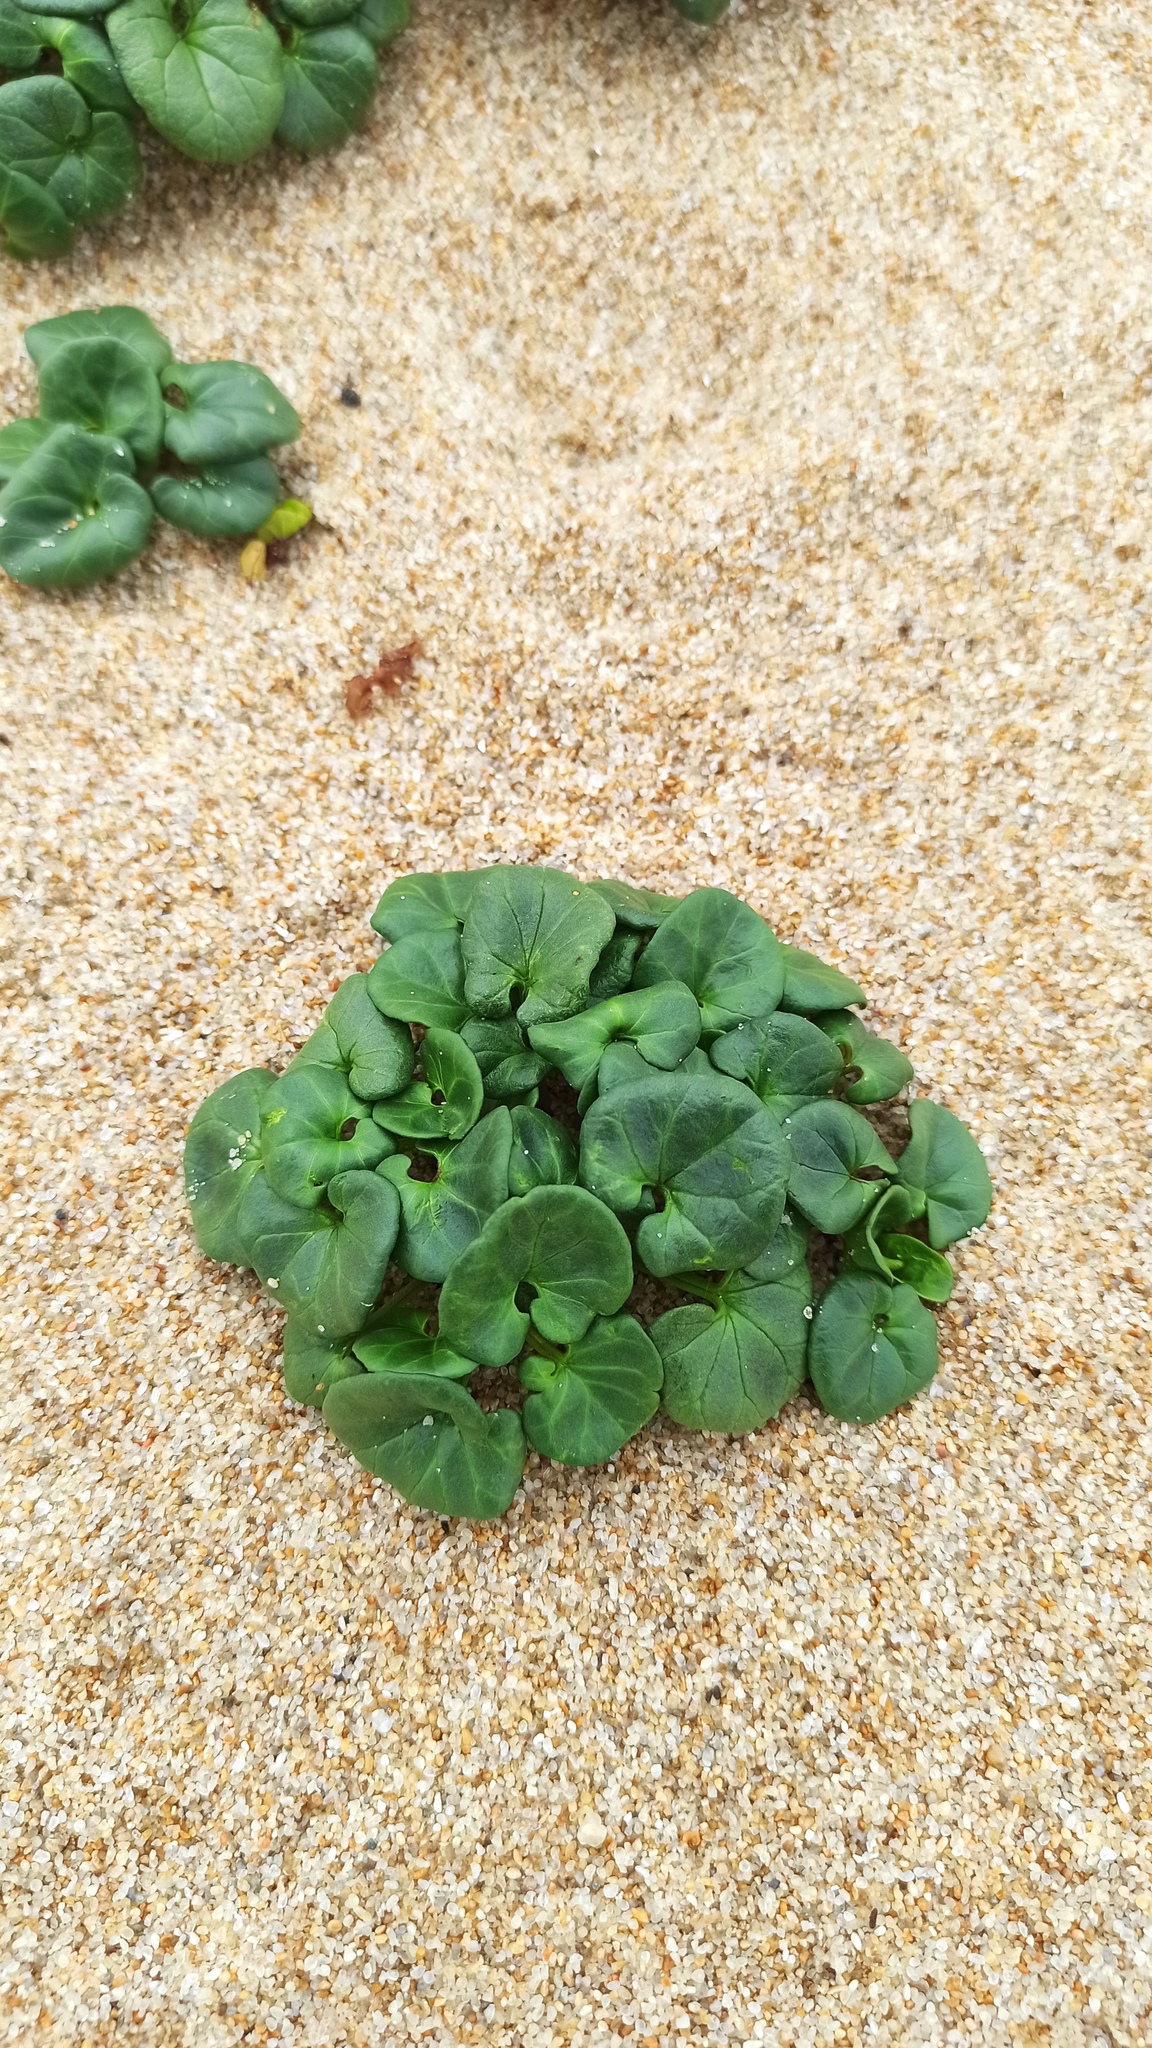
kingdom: Plantae
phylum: Tracheophyta
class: Magnoliopsida
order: Solanales
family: Convolvulaceae
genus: Calystegia
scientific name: Calystegia soldanella
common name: Sea bindweed
